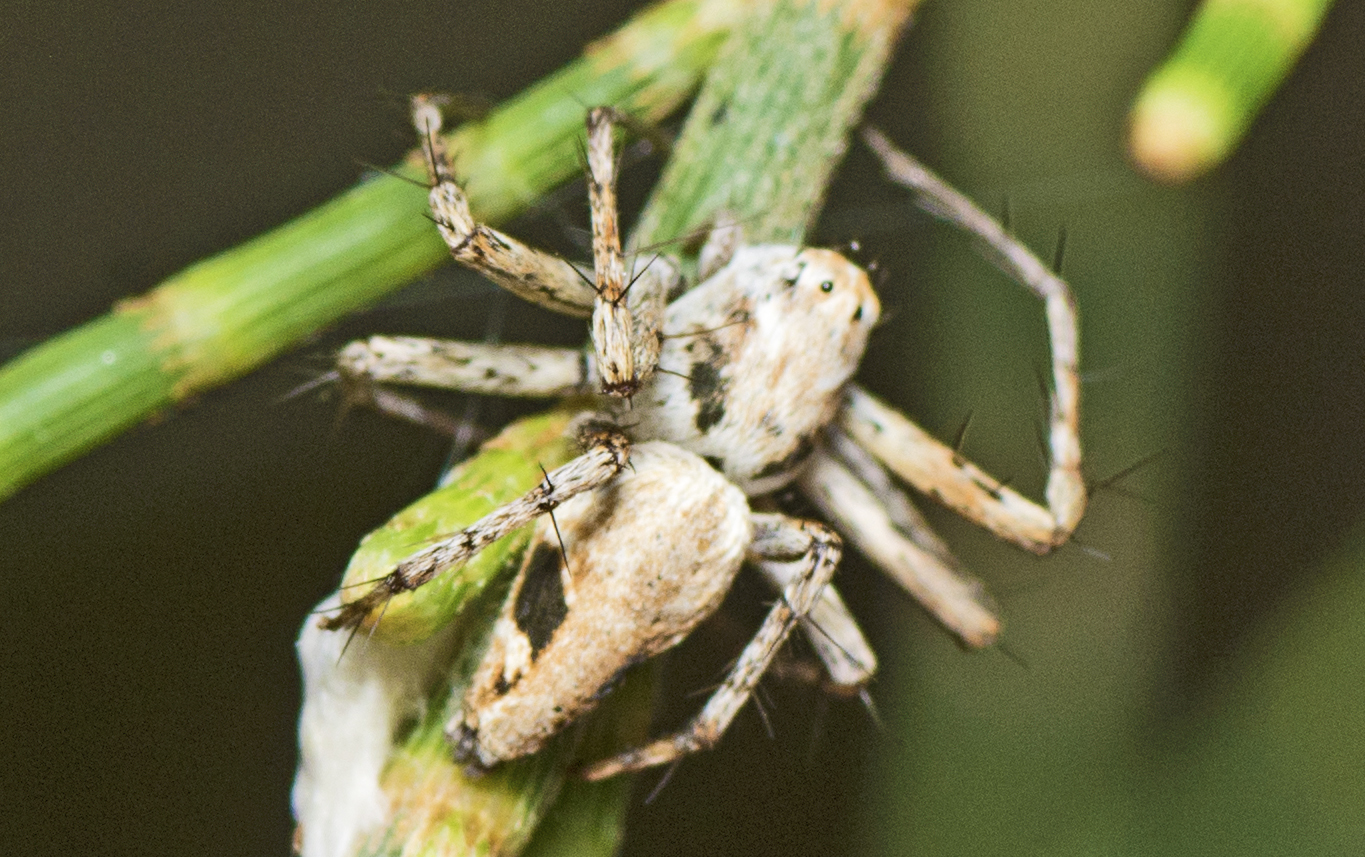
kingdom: Animalia
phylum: Arthropoda
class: Arachnida
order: Araneae
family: Oxyopidae
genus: Oxyopes
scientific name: Oxyopes variabilis
